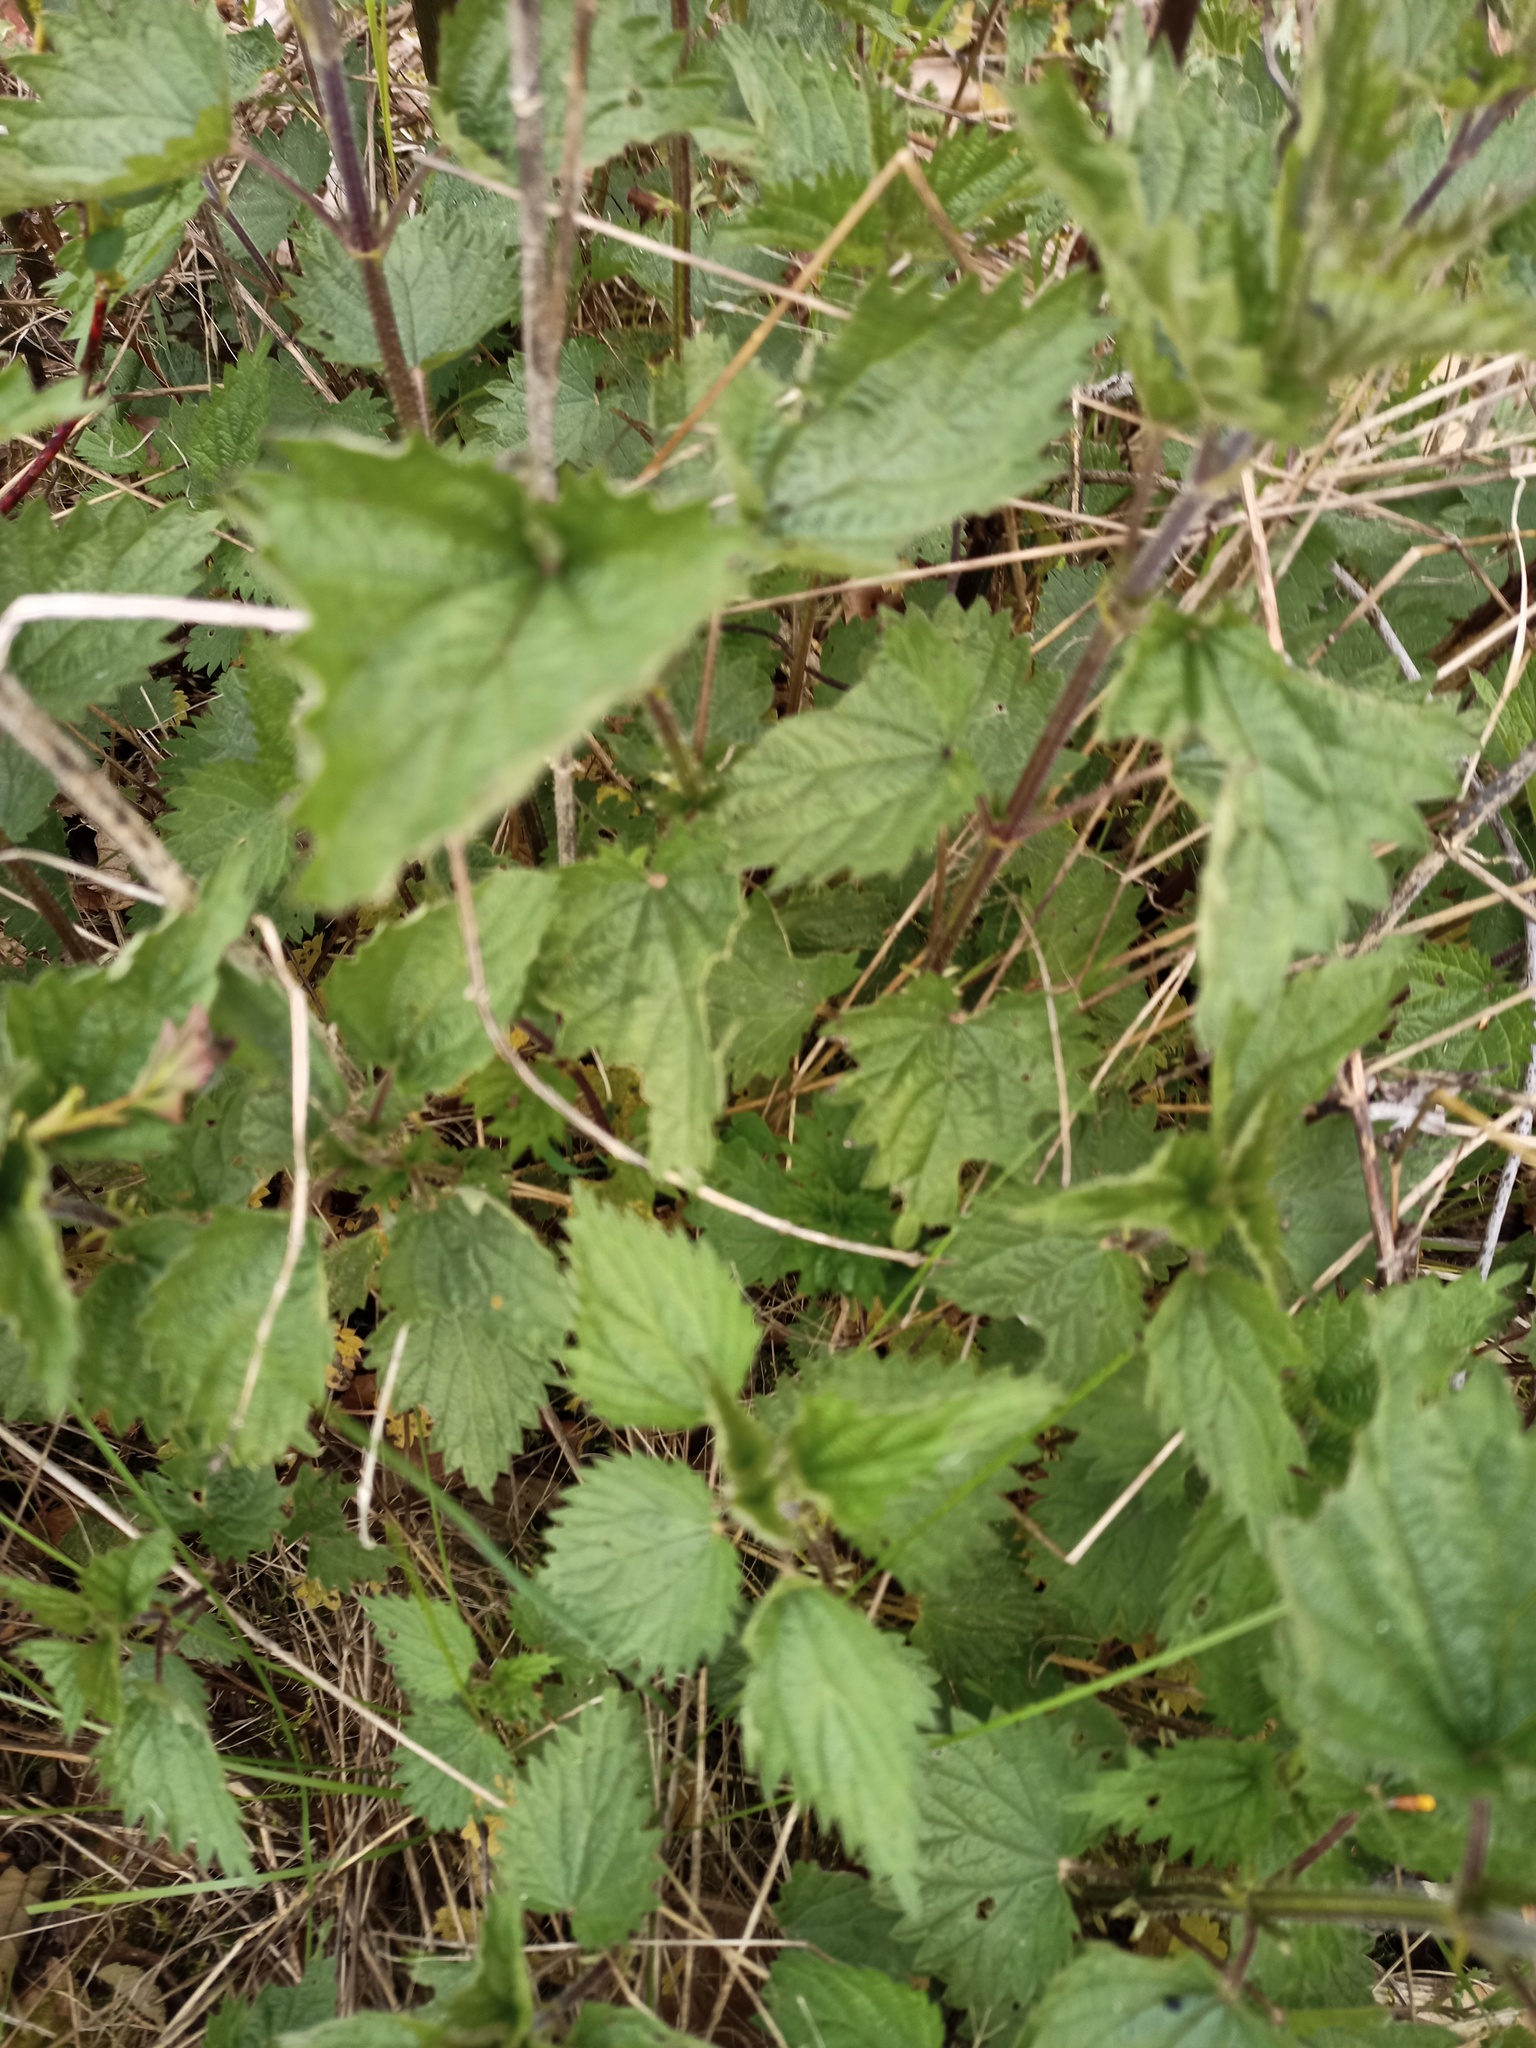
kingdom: Plantae
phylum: Tracheophyta
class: Magnoliopsida
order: Rosales
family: Urticaceae
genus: Urtica
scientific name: Urtica dioica
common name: Common nettle
